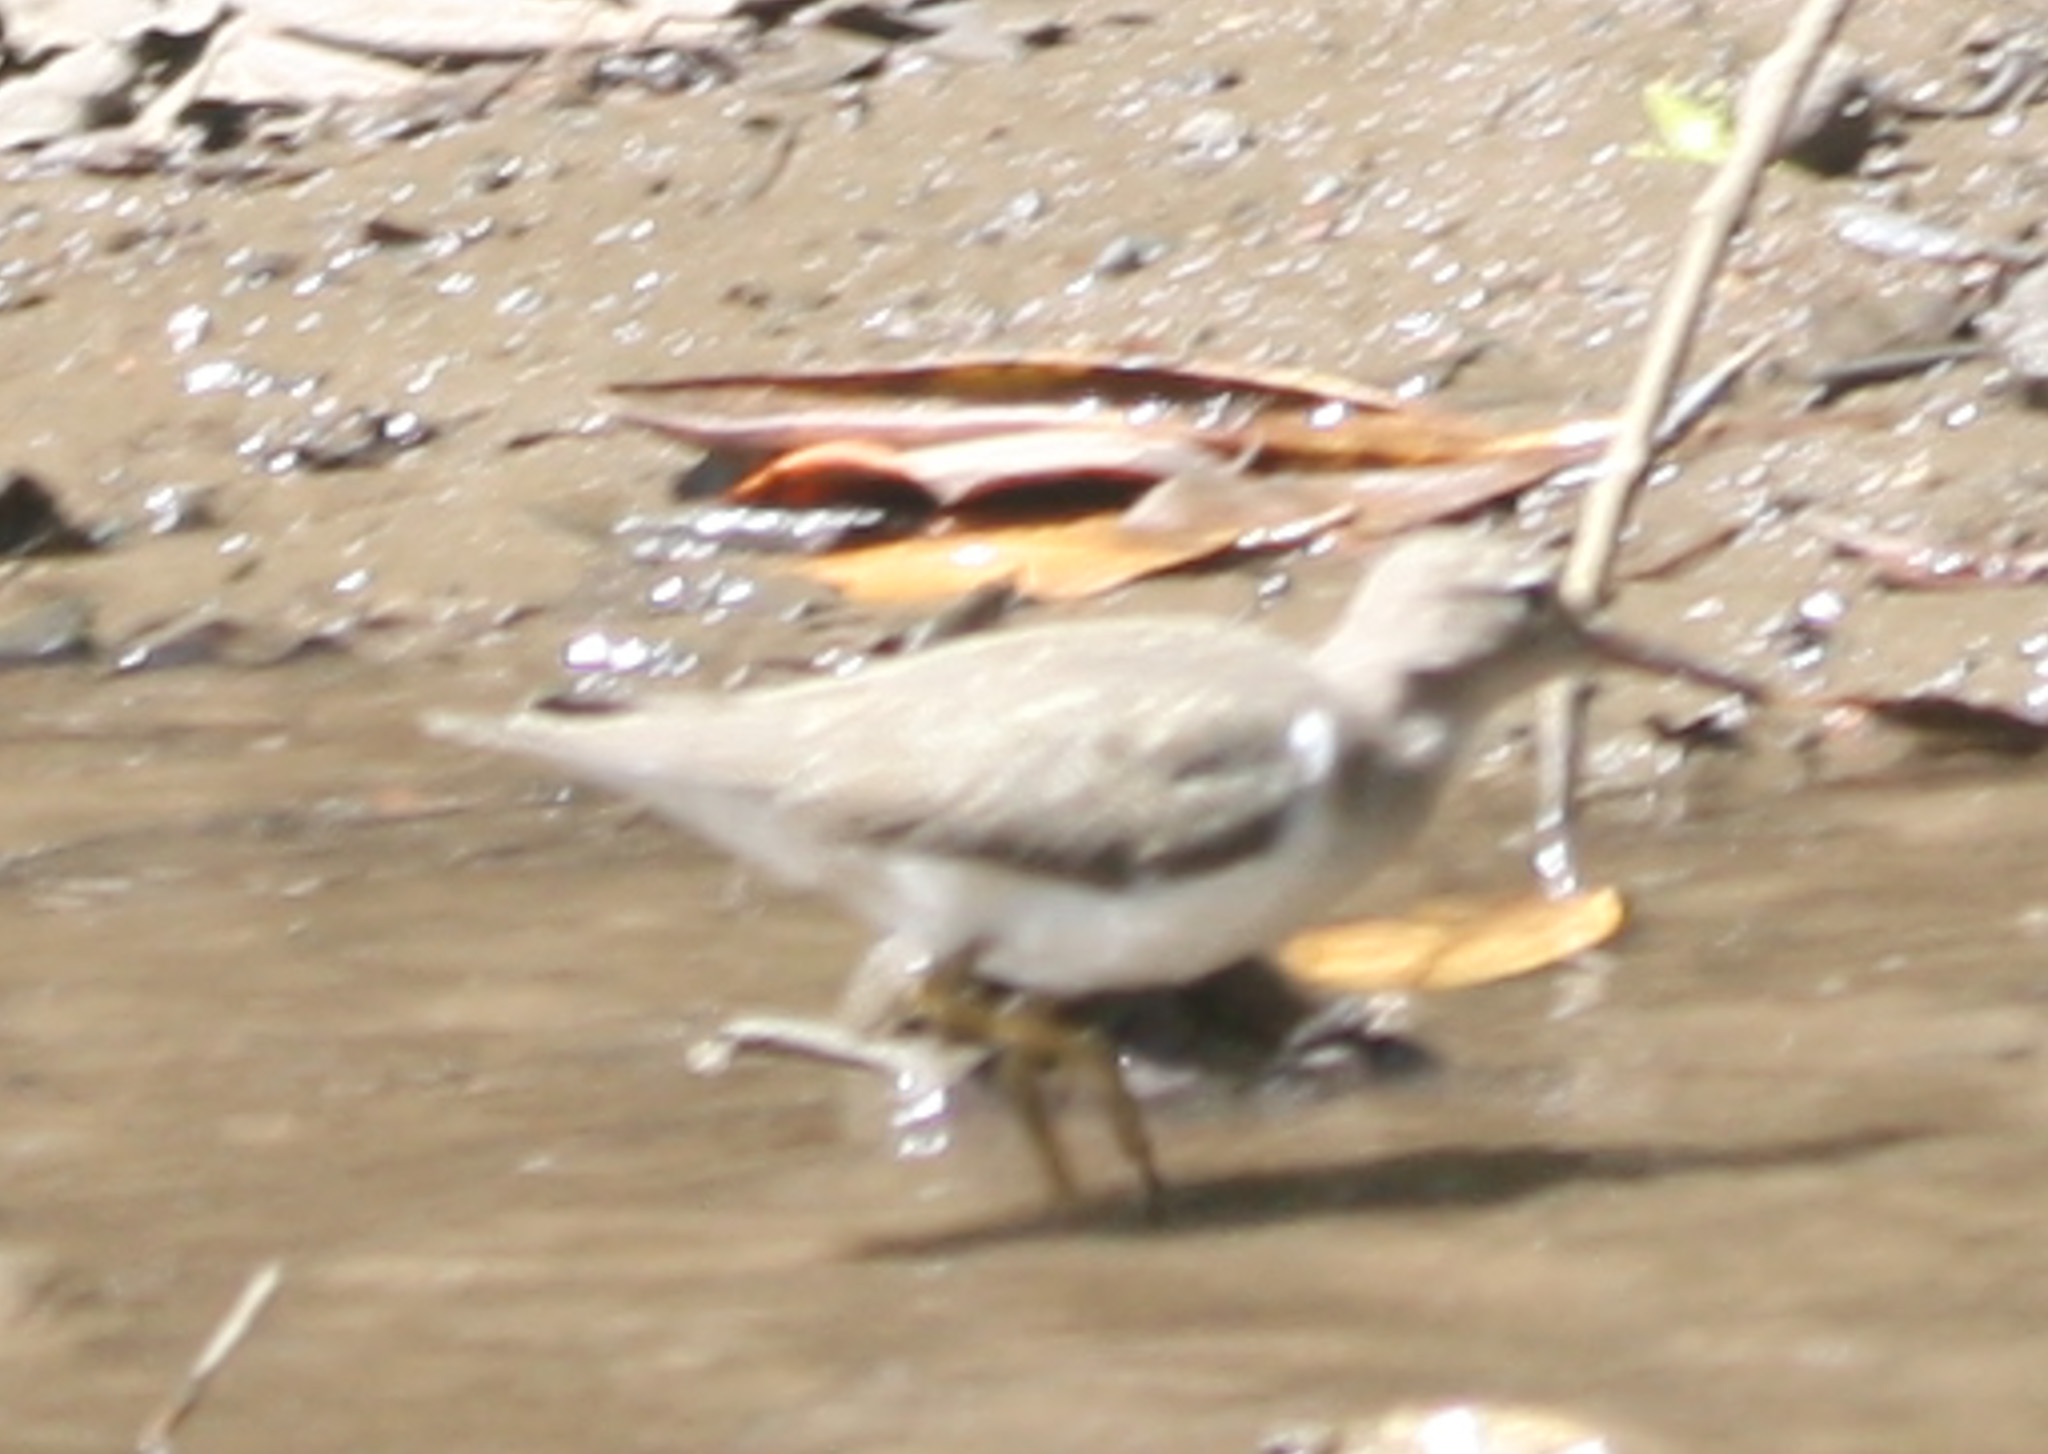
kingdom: Animalia
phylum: Chordata
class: Aves
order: Charadriiformes
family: Scolopacidae
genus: Actitis
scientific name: Actitis macularius
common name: Spotted sandpiper
